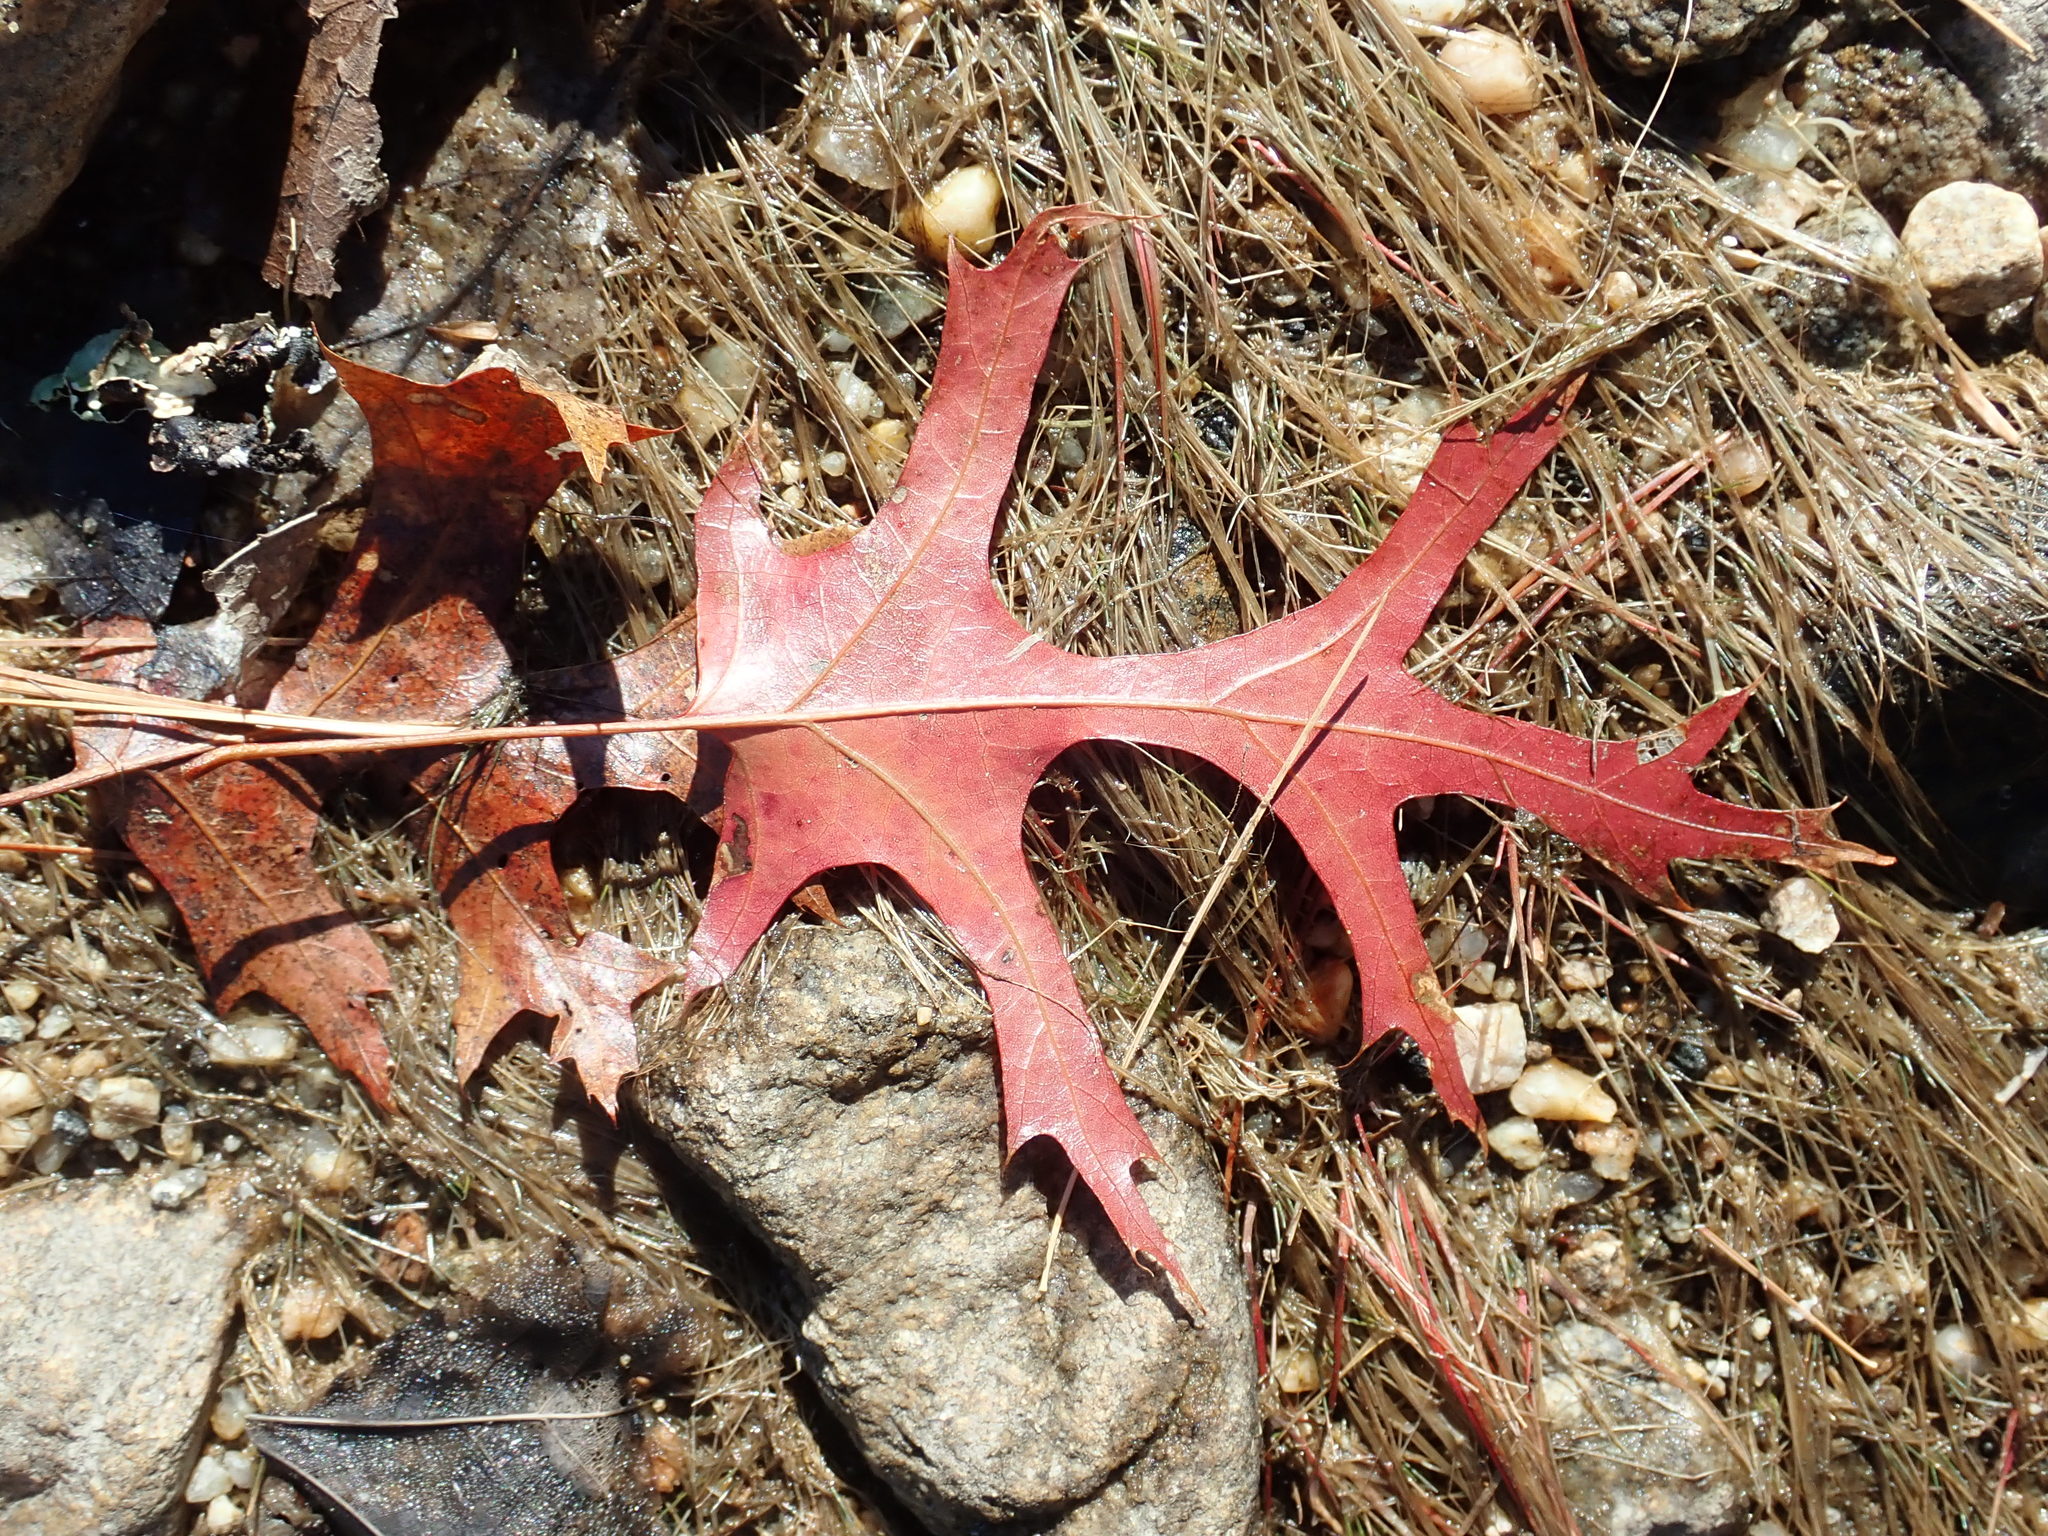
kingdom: Plantae
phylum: Tracheophyta
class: Magnoliopsida
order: Fagales
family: Fagaceae
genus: Quercus
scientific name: Quercus coccinea
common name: Scarlet oak
